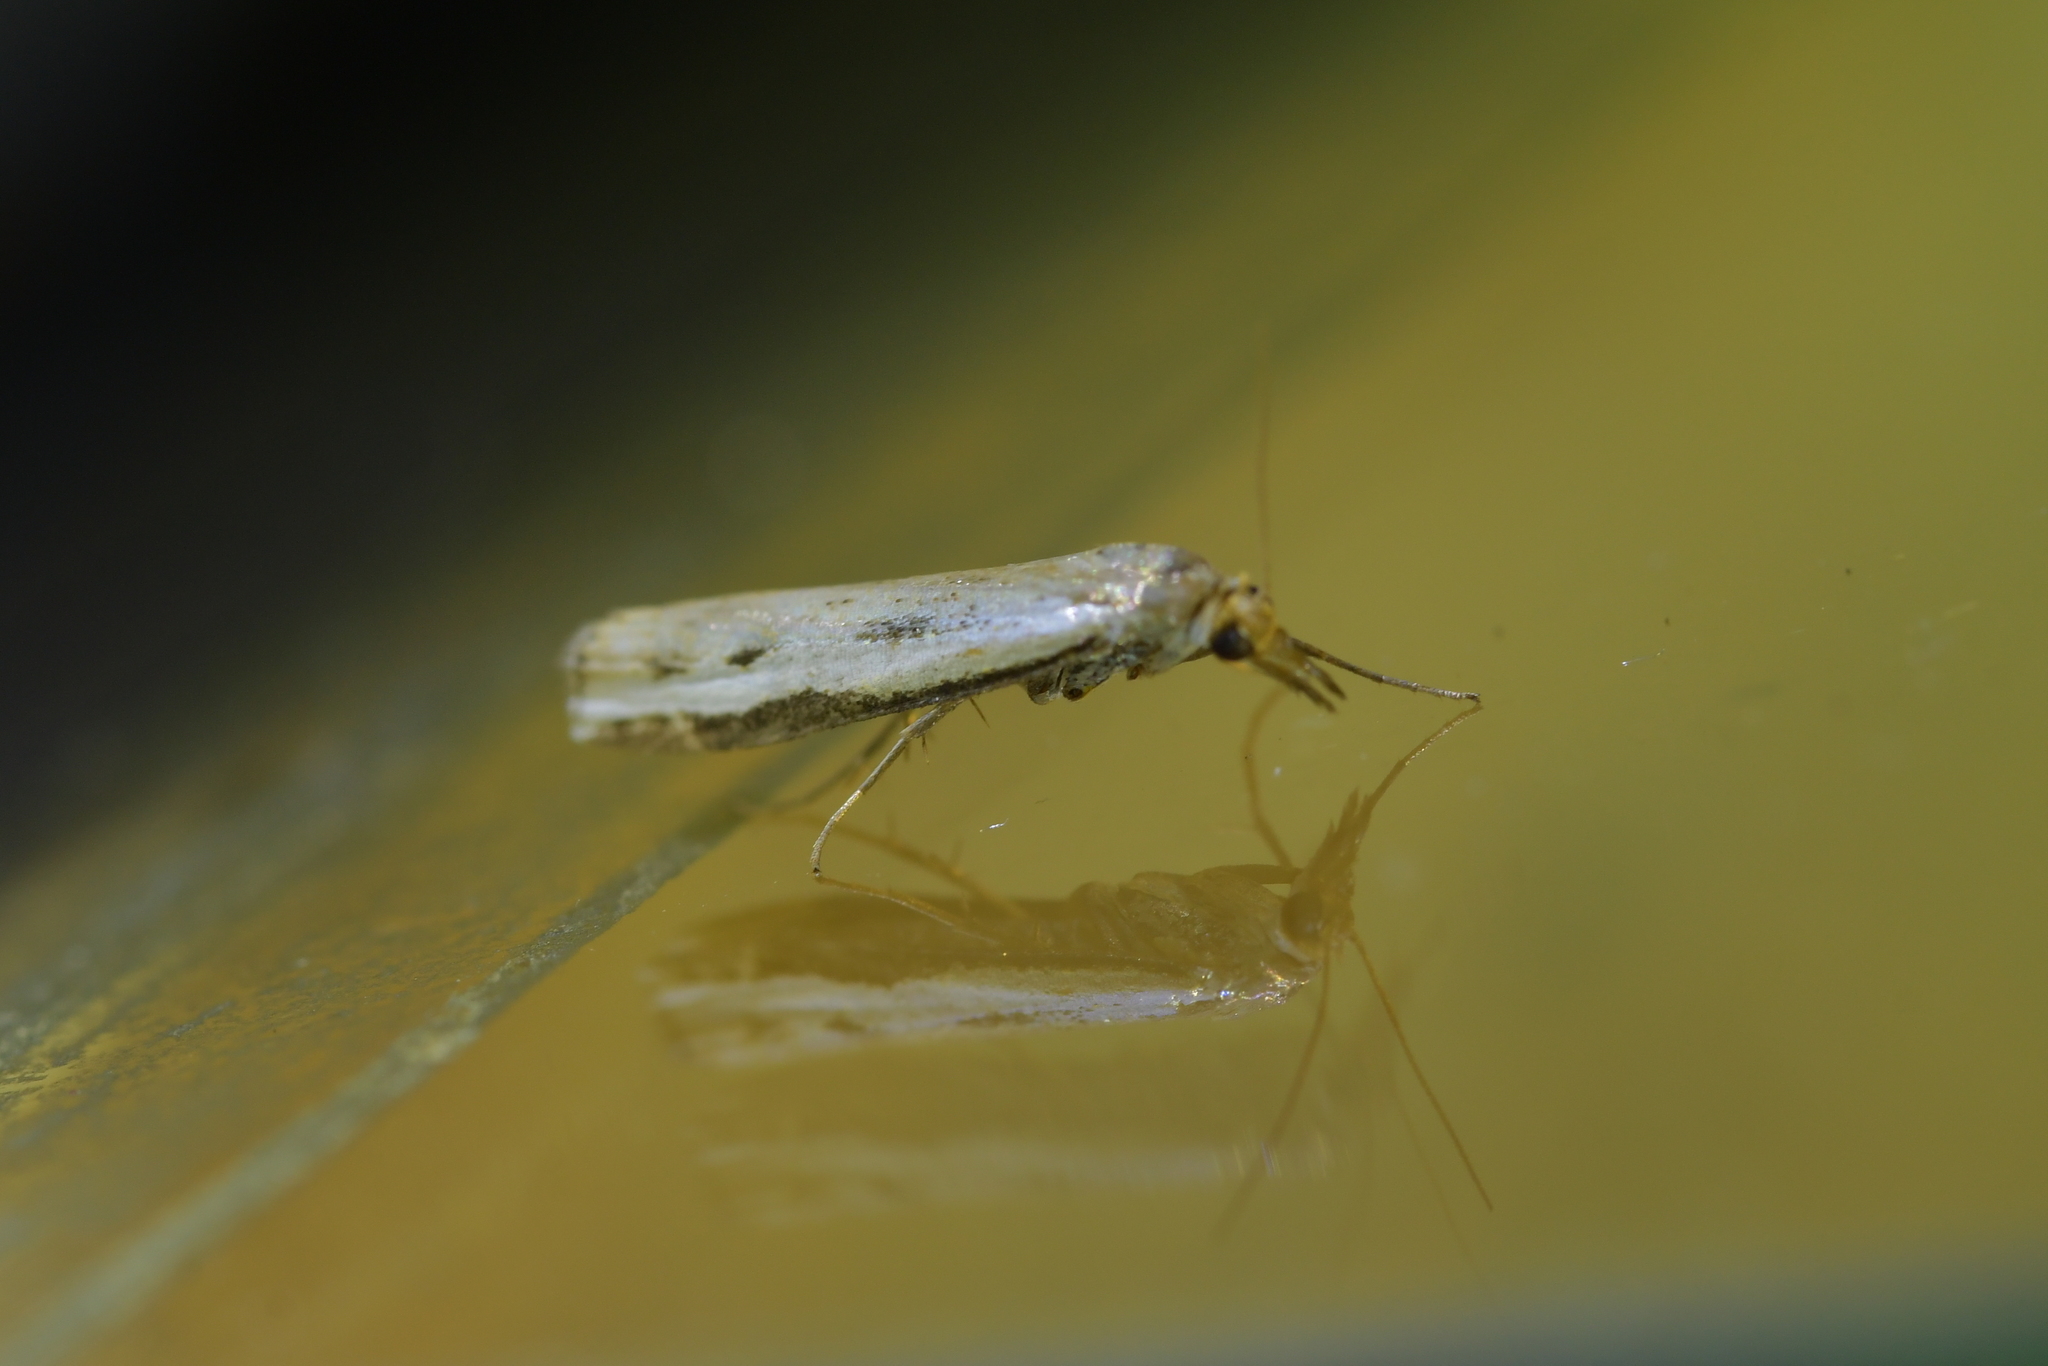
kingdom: Animalia
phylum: Arthropoda
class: Insecta
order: Lepidoptera
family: Crambidae
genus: Orocrambus
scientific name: Orocrambus flexuosellus
